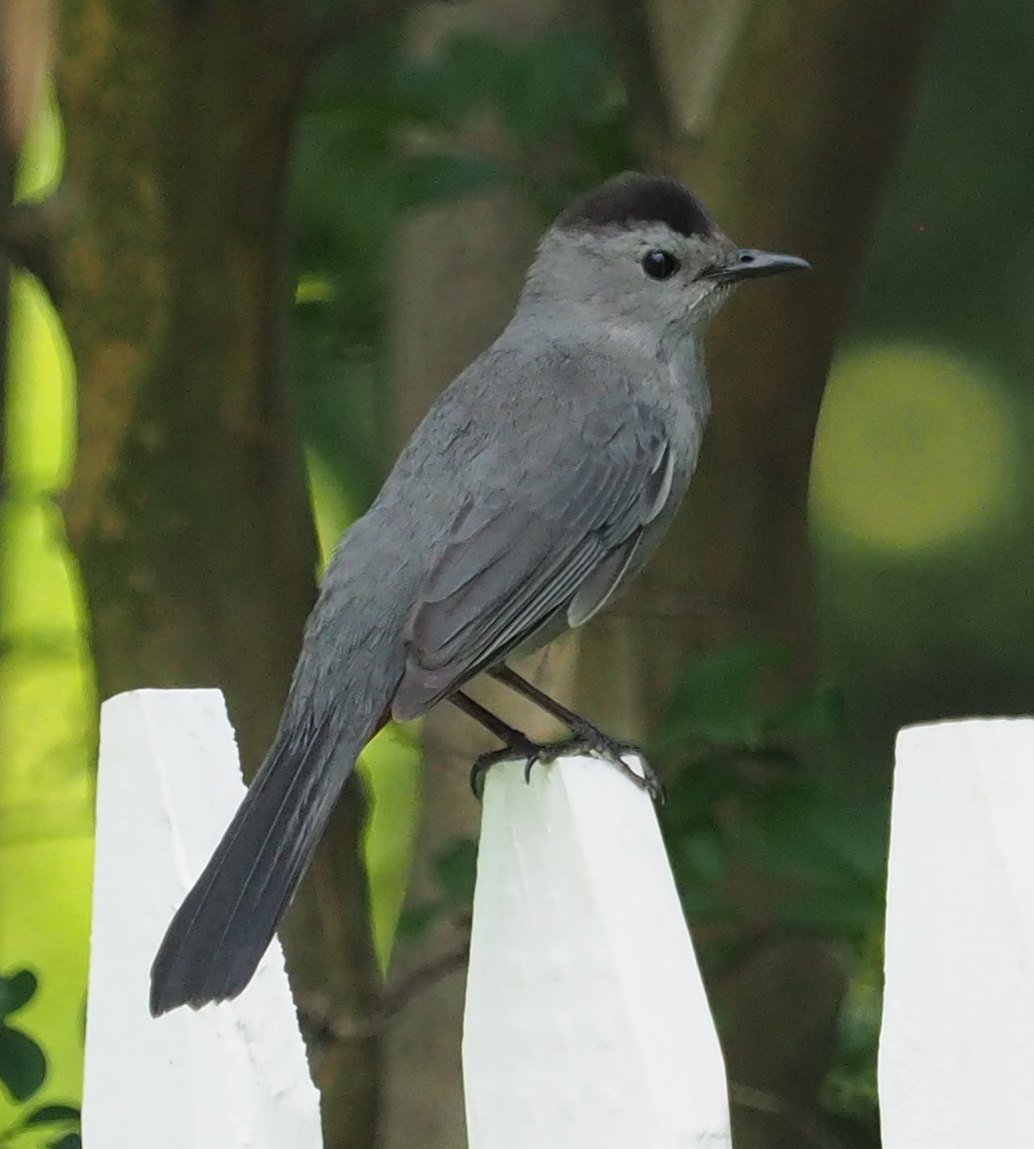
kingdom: Animalia
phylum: Chordata
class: Aves
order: Passeriformes
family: Mimidae
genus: Dumetella
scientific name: Dumetella carolinensis
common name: Gray catbird
